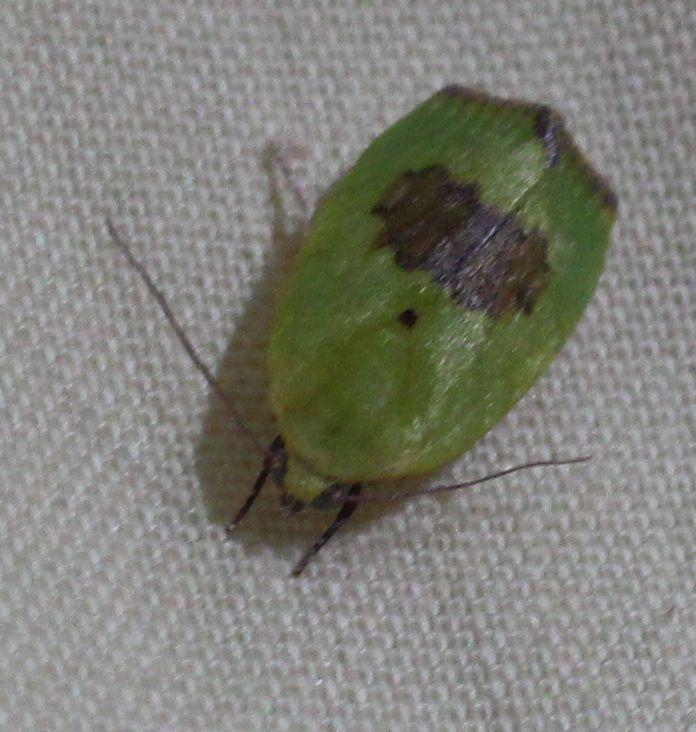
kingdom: Animalia
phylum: Arthropoda
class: Insecta
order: Lepidoptera
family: Nolidae
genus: Earias
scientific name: Earias biplaga
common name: Spiny bollworm
